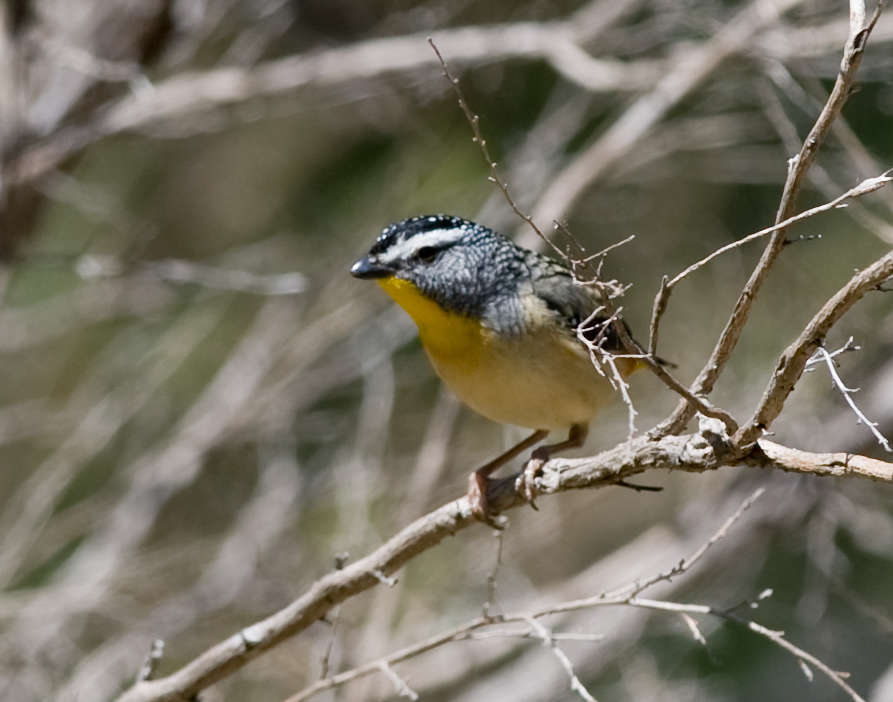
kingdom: Animalia
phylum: Chordata
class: Aves
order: Passeriformes
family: Pardalotidae
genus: Pardalotus
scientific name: Pardalotus punctatus
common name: Spotted pardalote
